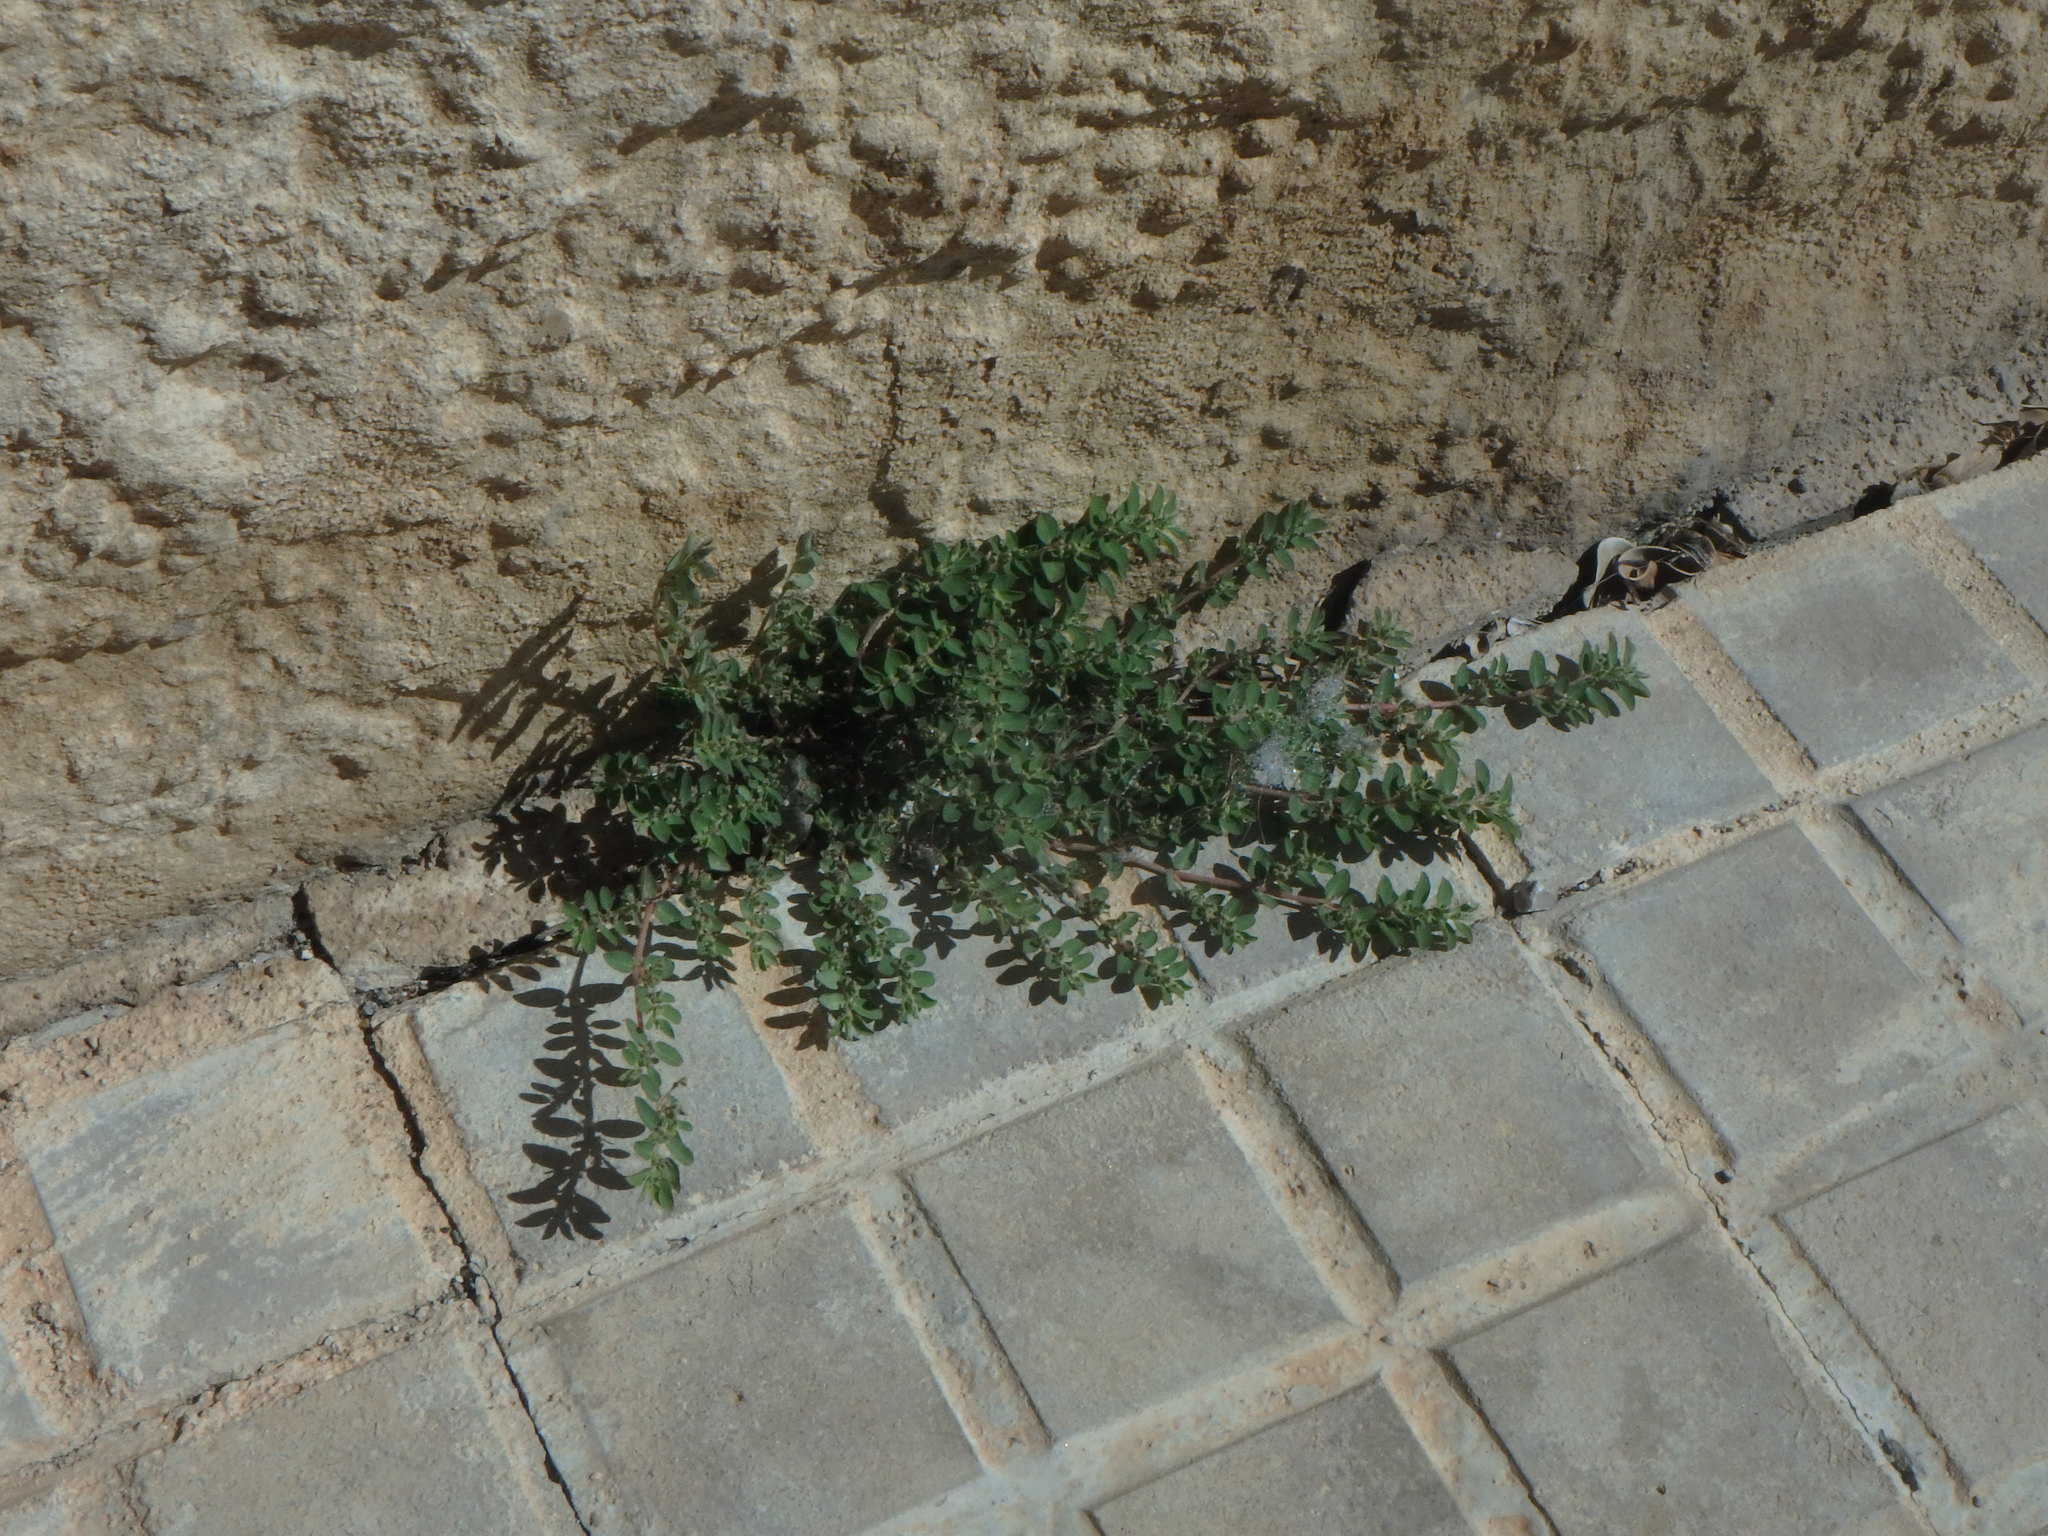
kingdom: Plantae
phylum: Tracheophyta
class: Magnoliopsida
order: Malpighiales
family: Euphorbiaceae
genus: Euphorbia
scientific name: Euphorbia prostrata
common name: Prostrate sandmat
